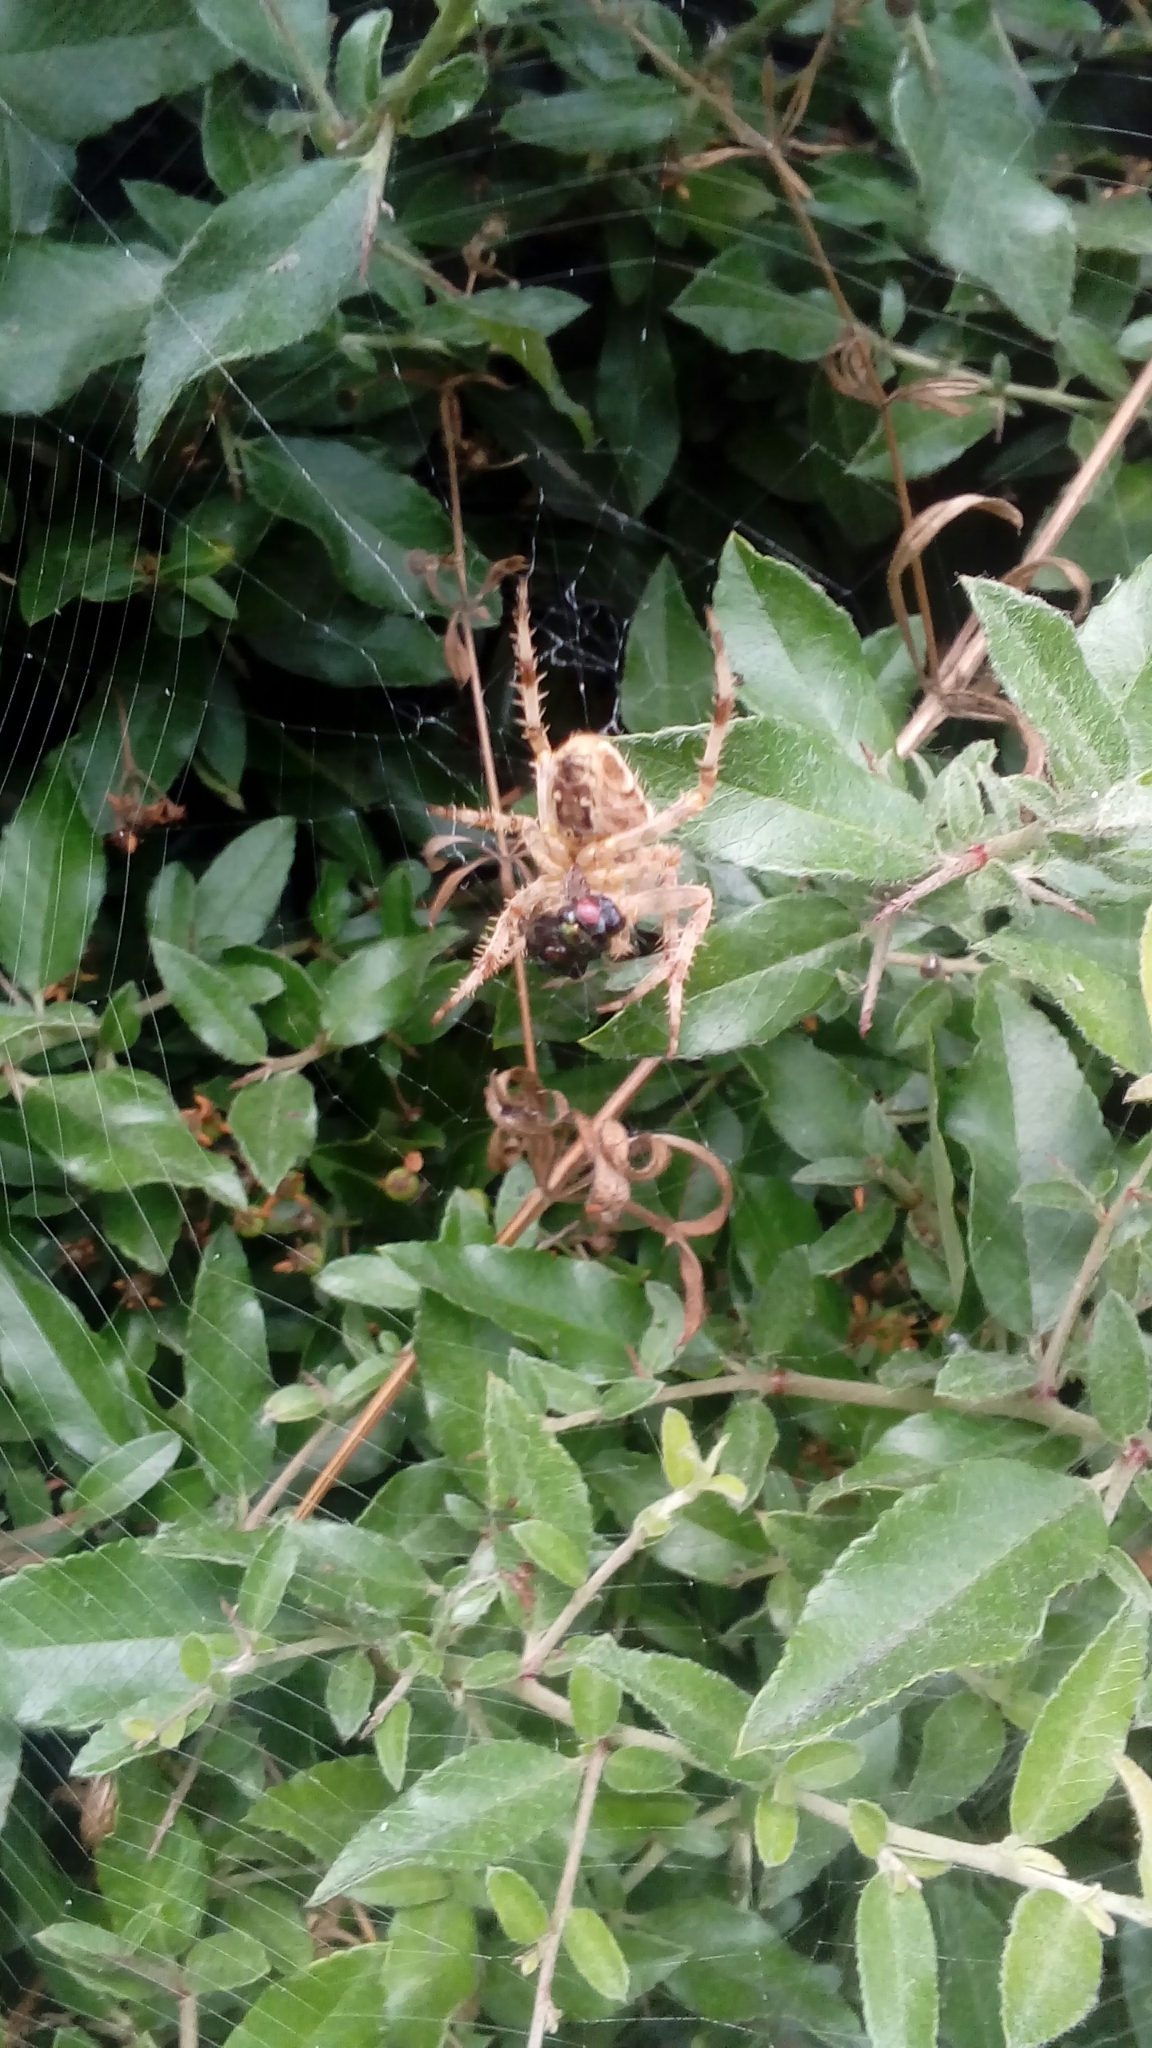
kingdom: Animalia
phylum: Arthropoda
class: Arachnida
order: Araneae
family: Araneidae
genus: Araneus
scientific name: Araneus diadematus
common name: Cross orbweaver
